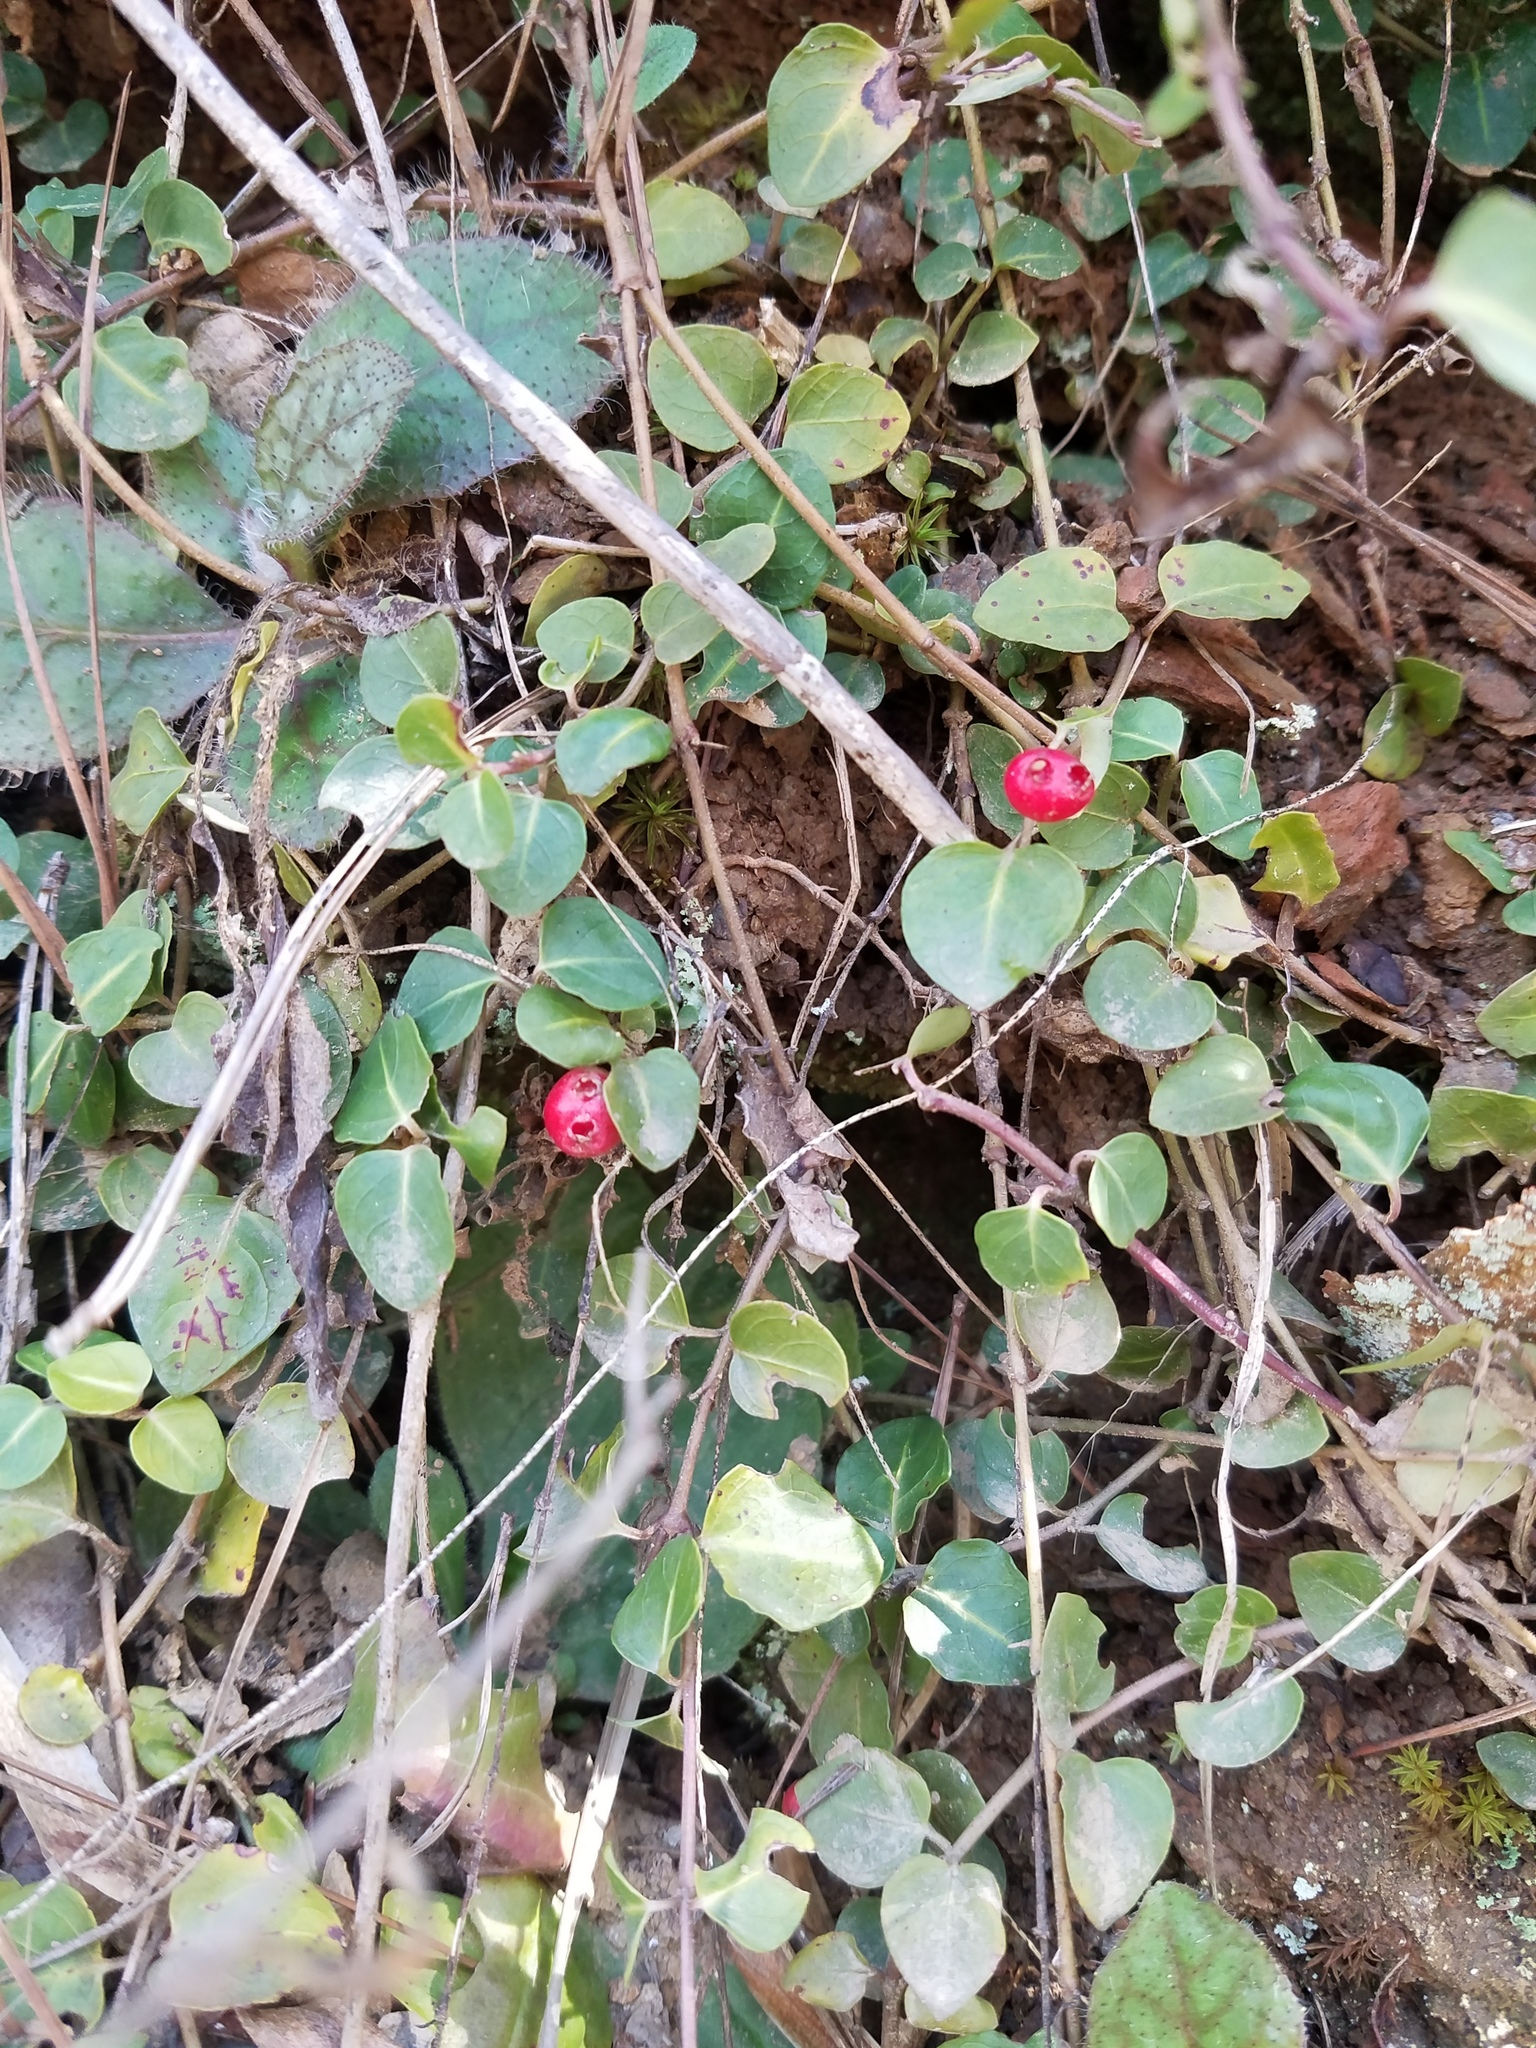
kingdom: Plantae
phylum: Tracheophyta
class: Magnoliopsida
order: Gentianales
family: Rubiaceae
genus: Mitchella
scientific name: Mitchella repens
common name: Partridge-berry
